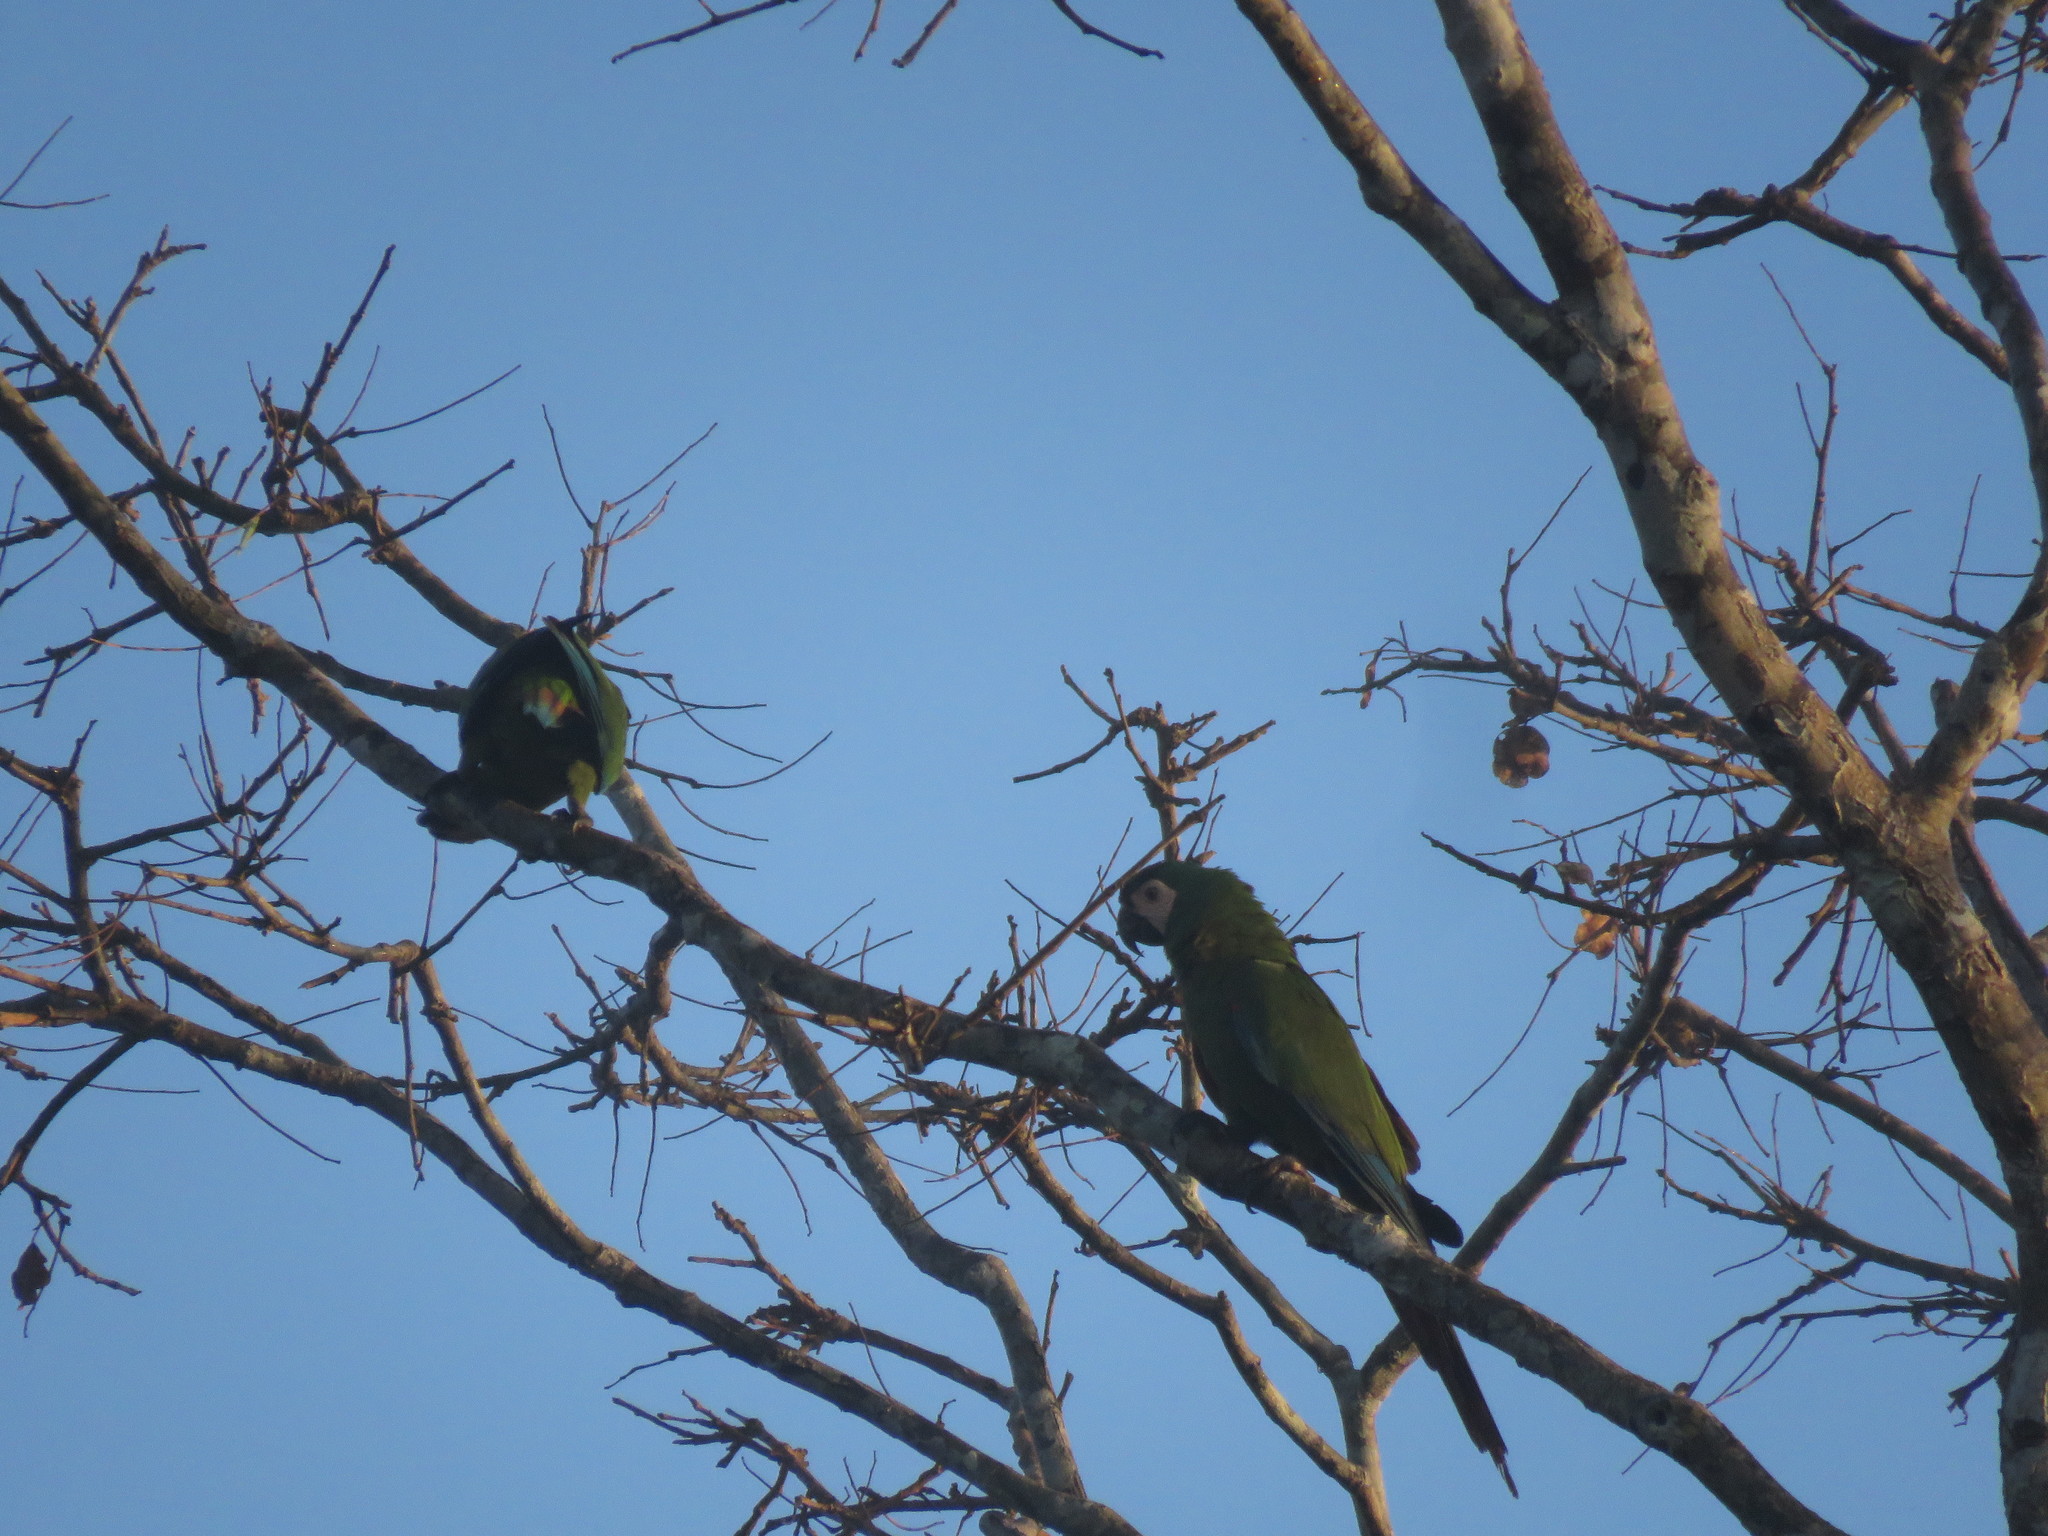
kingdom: Animalia
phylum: Chordata
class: Aves
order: Psittaciformes
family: Psittacidae
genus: Ara
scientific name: Ara severus
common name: Chestnut-fronted macaw
